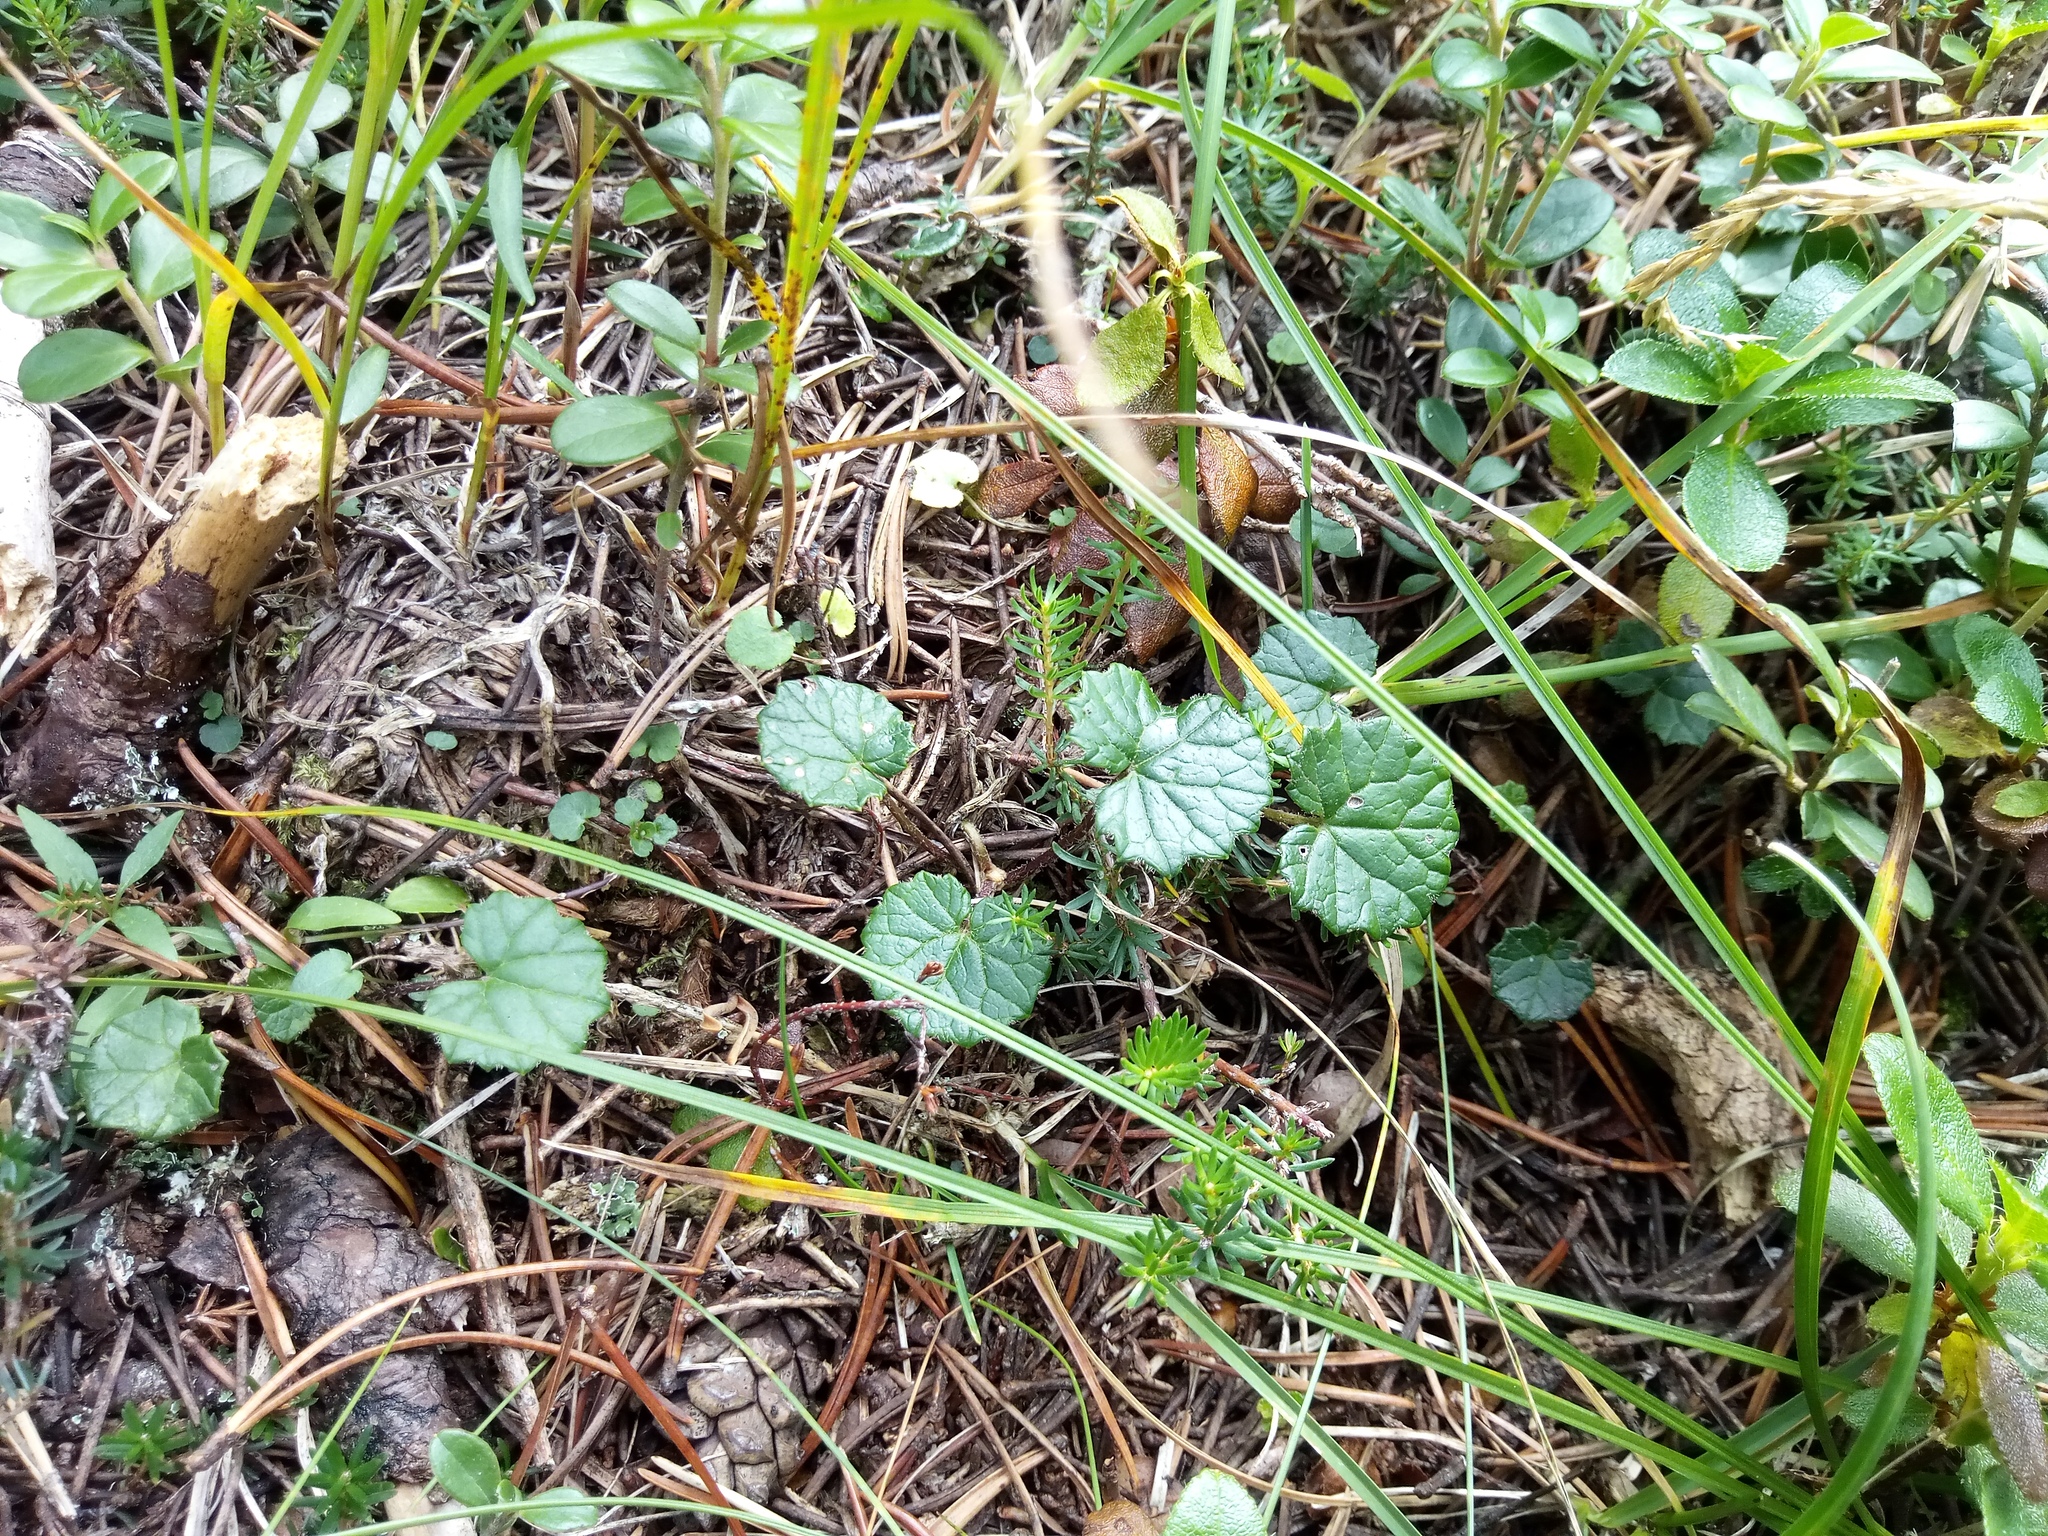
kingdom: Plantae
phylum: Tracheophyta
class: Magnoliopsida
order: Asterales
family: Asteraceae
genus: Homogyne
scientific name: Homogyne alpina
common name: Purple colt's-foot
